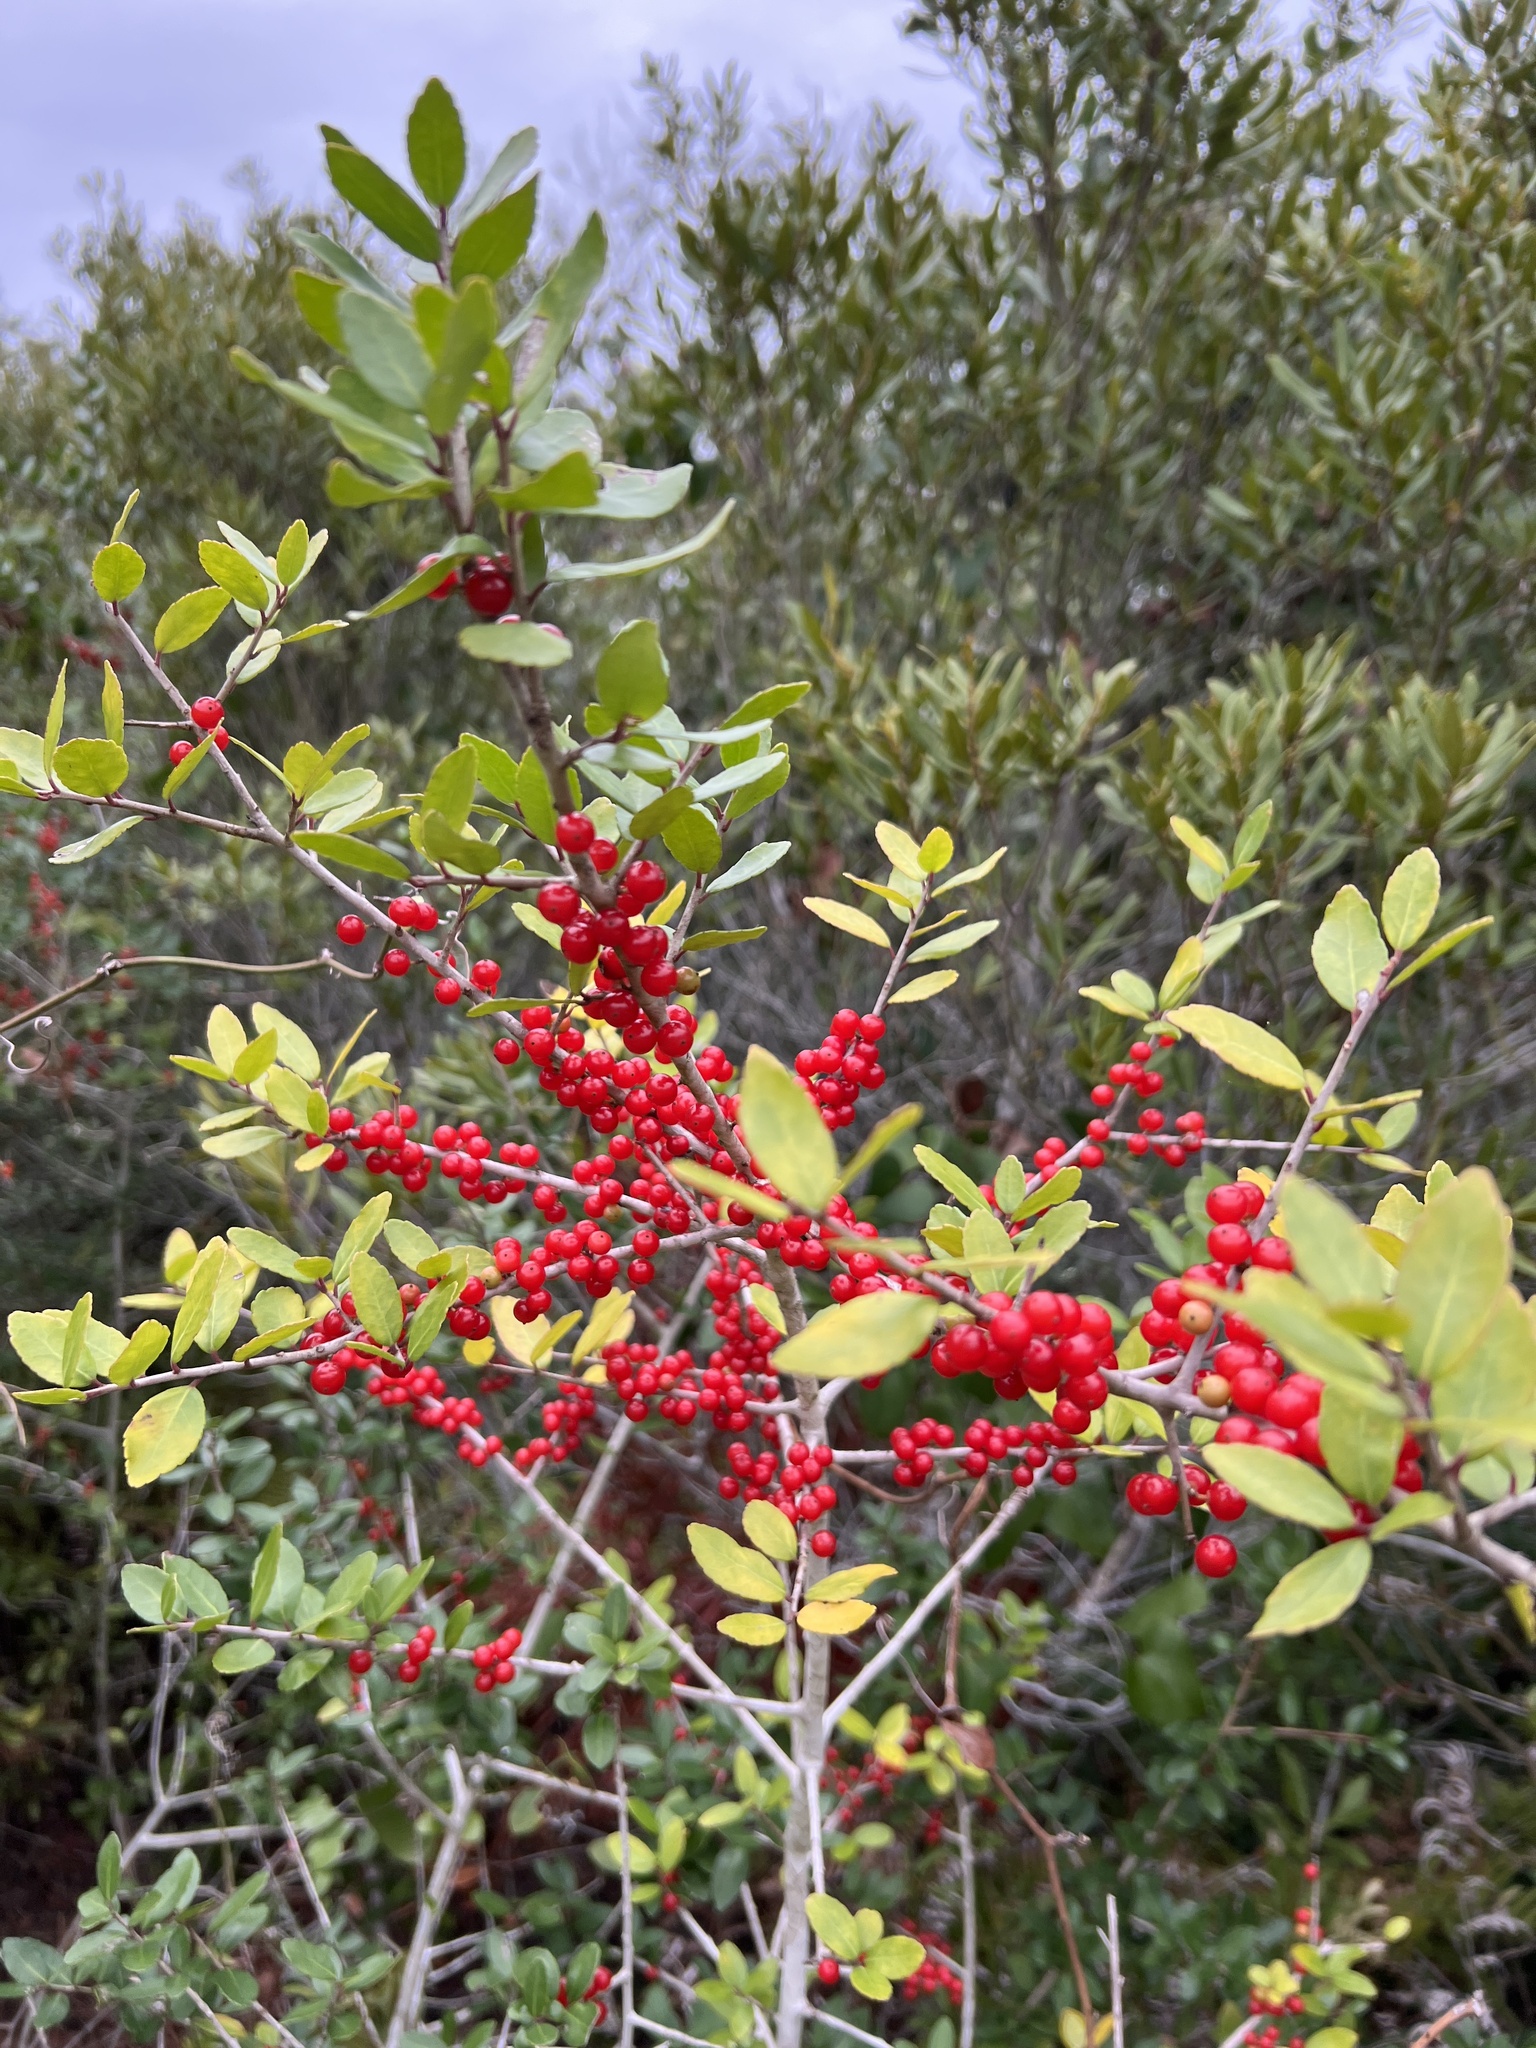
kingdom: Plantae
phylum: Tracheophyta
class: Magnoliopsida
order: Aquifoliales
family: Aquifoliaceae
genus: Ilex
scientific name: Ilex vomitoria
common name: Yaupon holly
